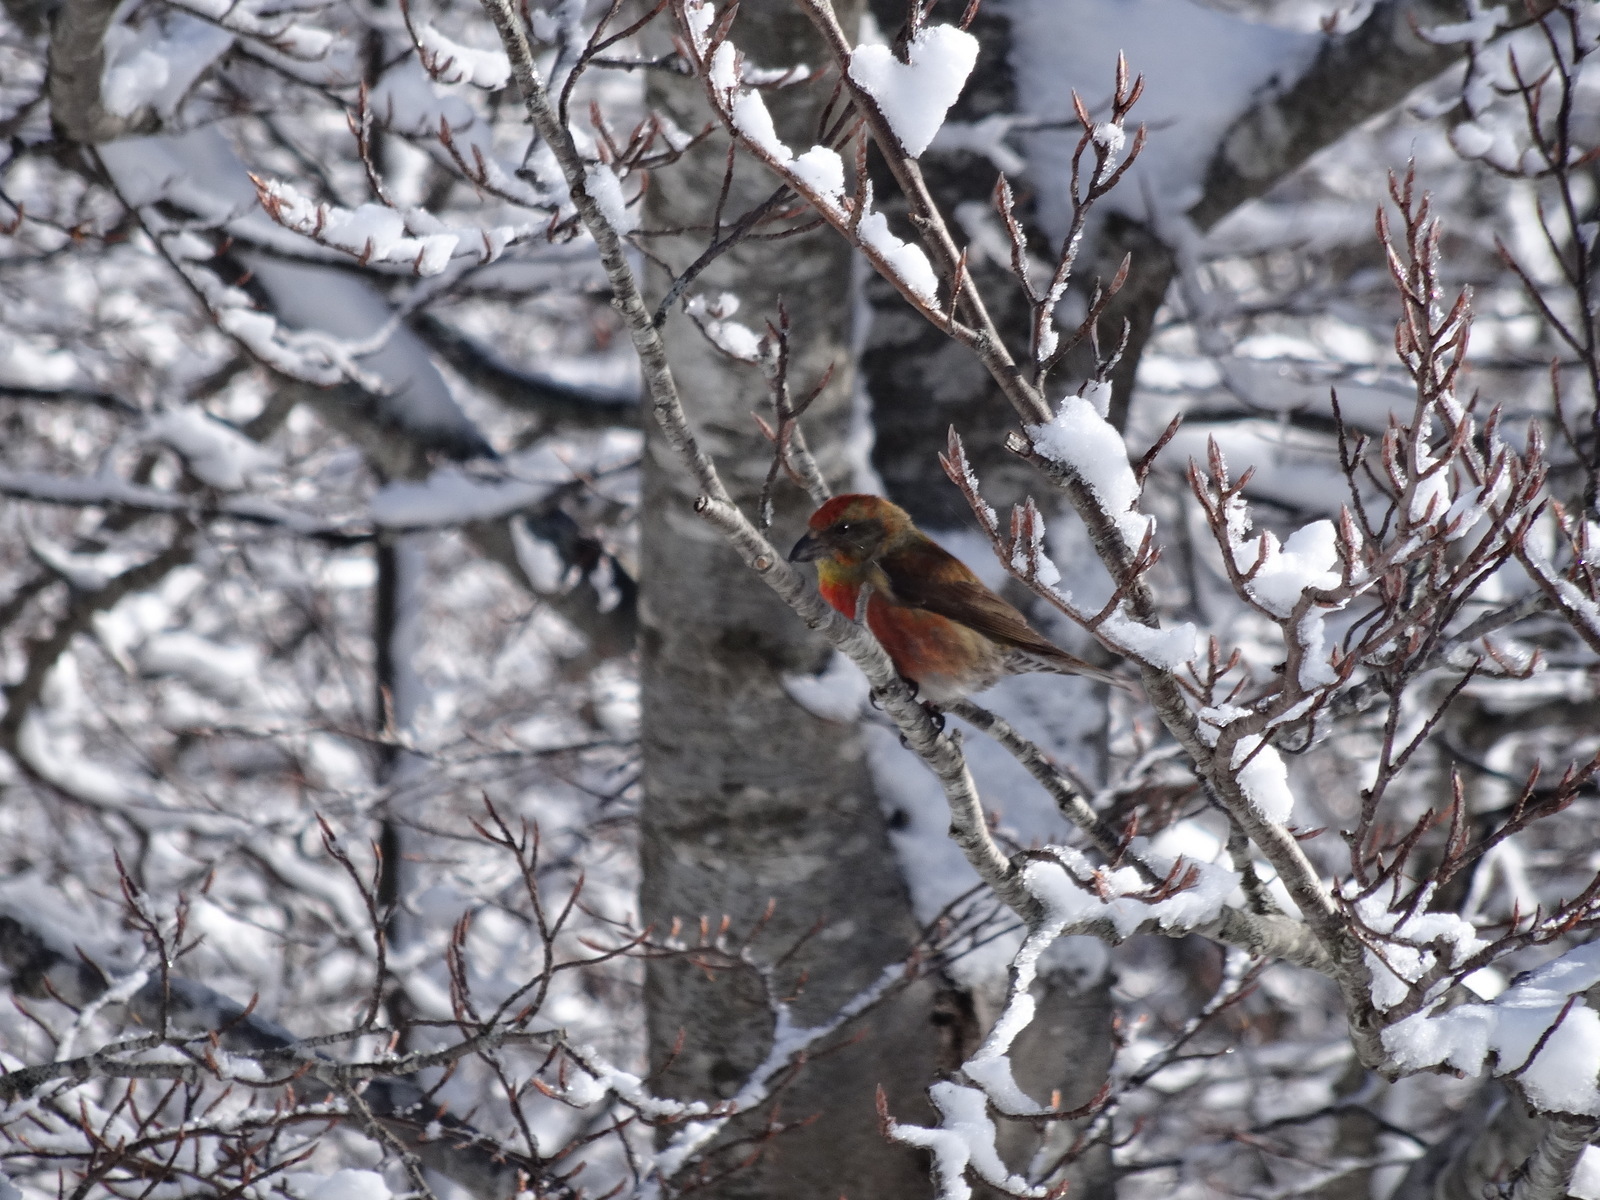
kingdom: Animalia
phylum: Chordata
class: Aves
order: Passeriformes
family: Fringillidae
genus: Loxia
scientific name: Loxia curvirostra
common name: Red crossbill
